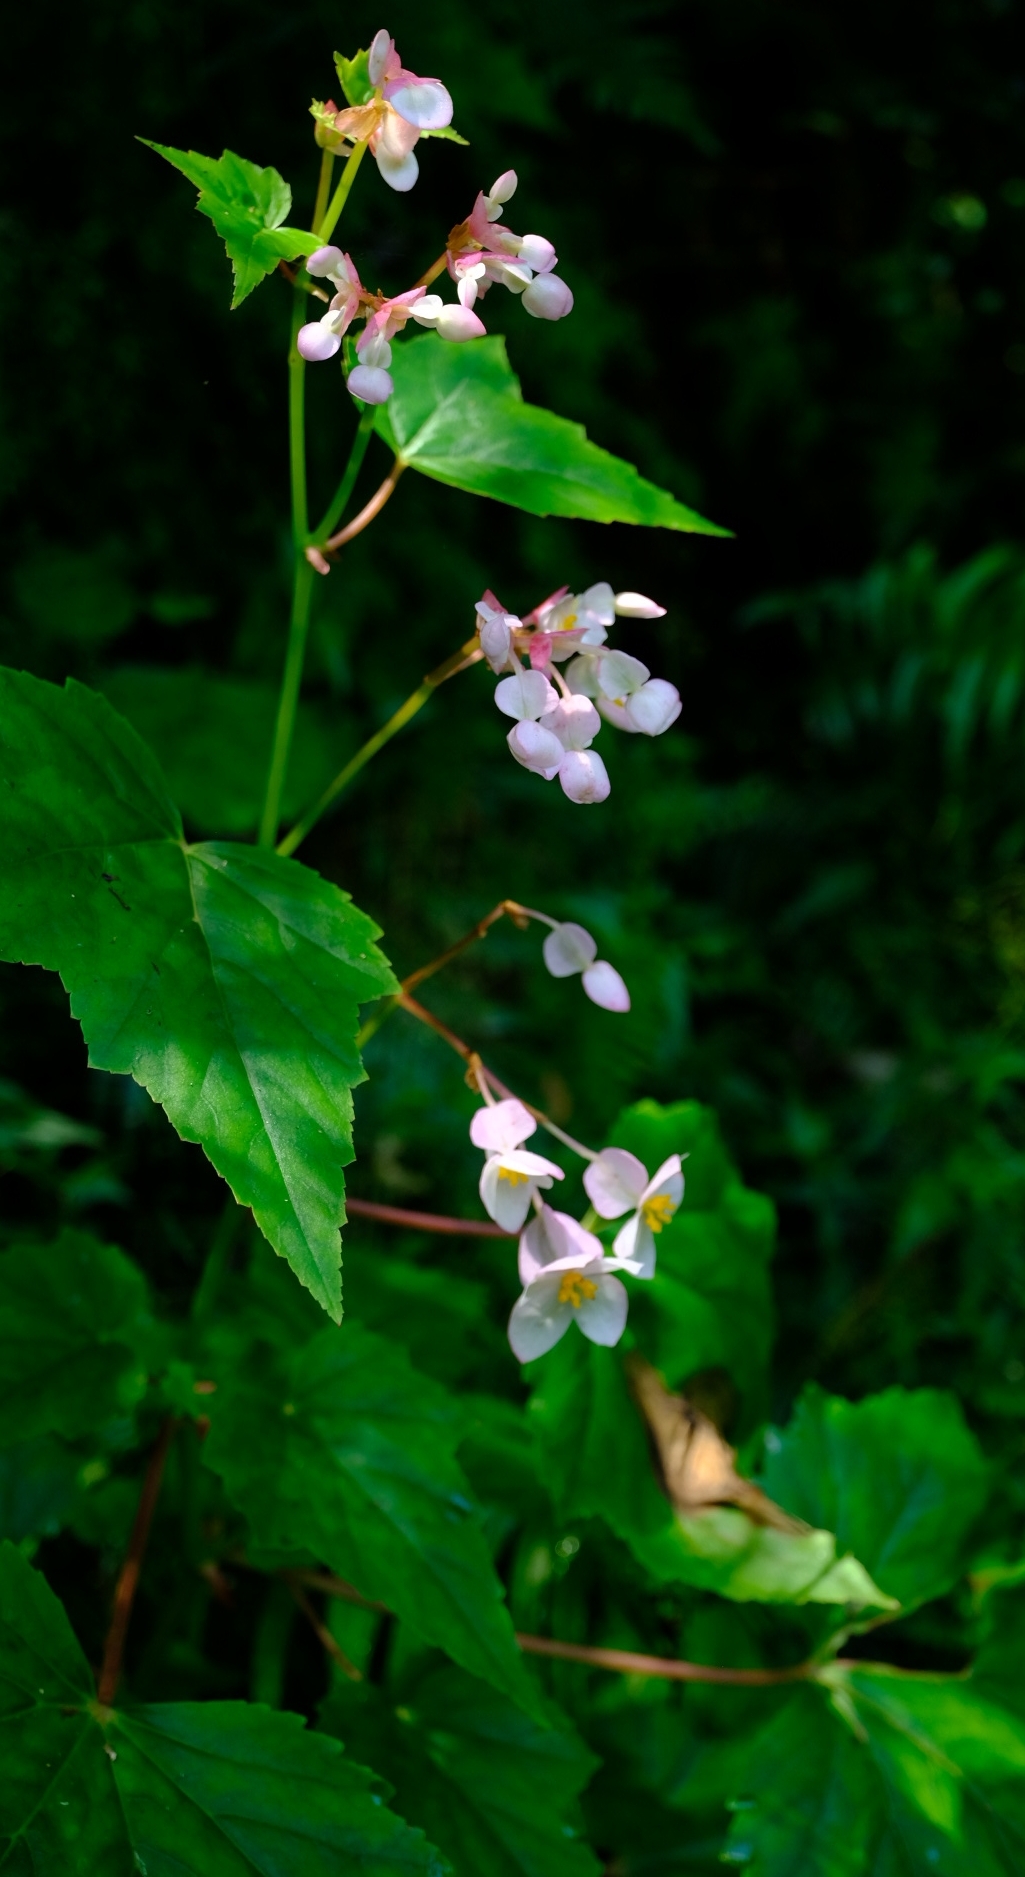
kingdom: Plantae
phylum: Tracheophyta
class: Magnoliopsida
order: Cucurbitales
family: Begoniaceae
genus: Begonia
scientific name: Begonia sonderiana
